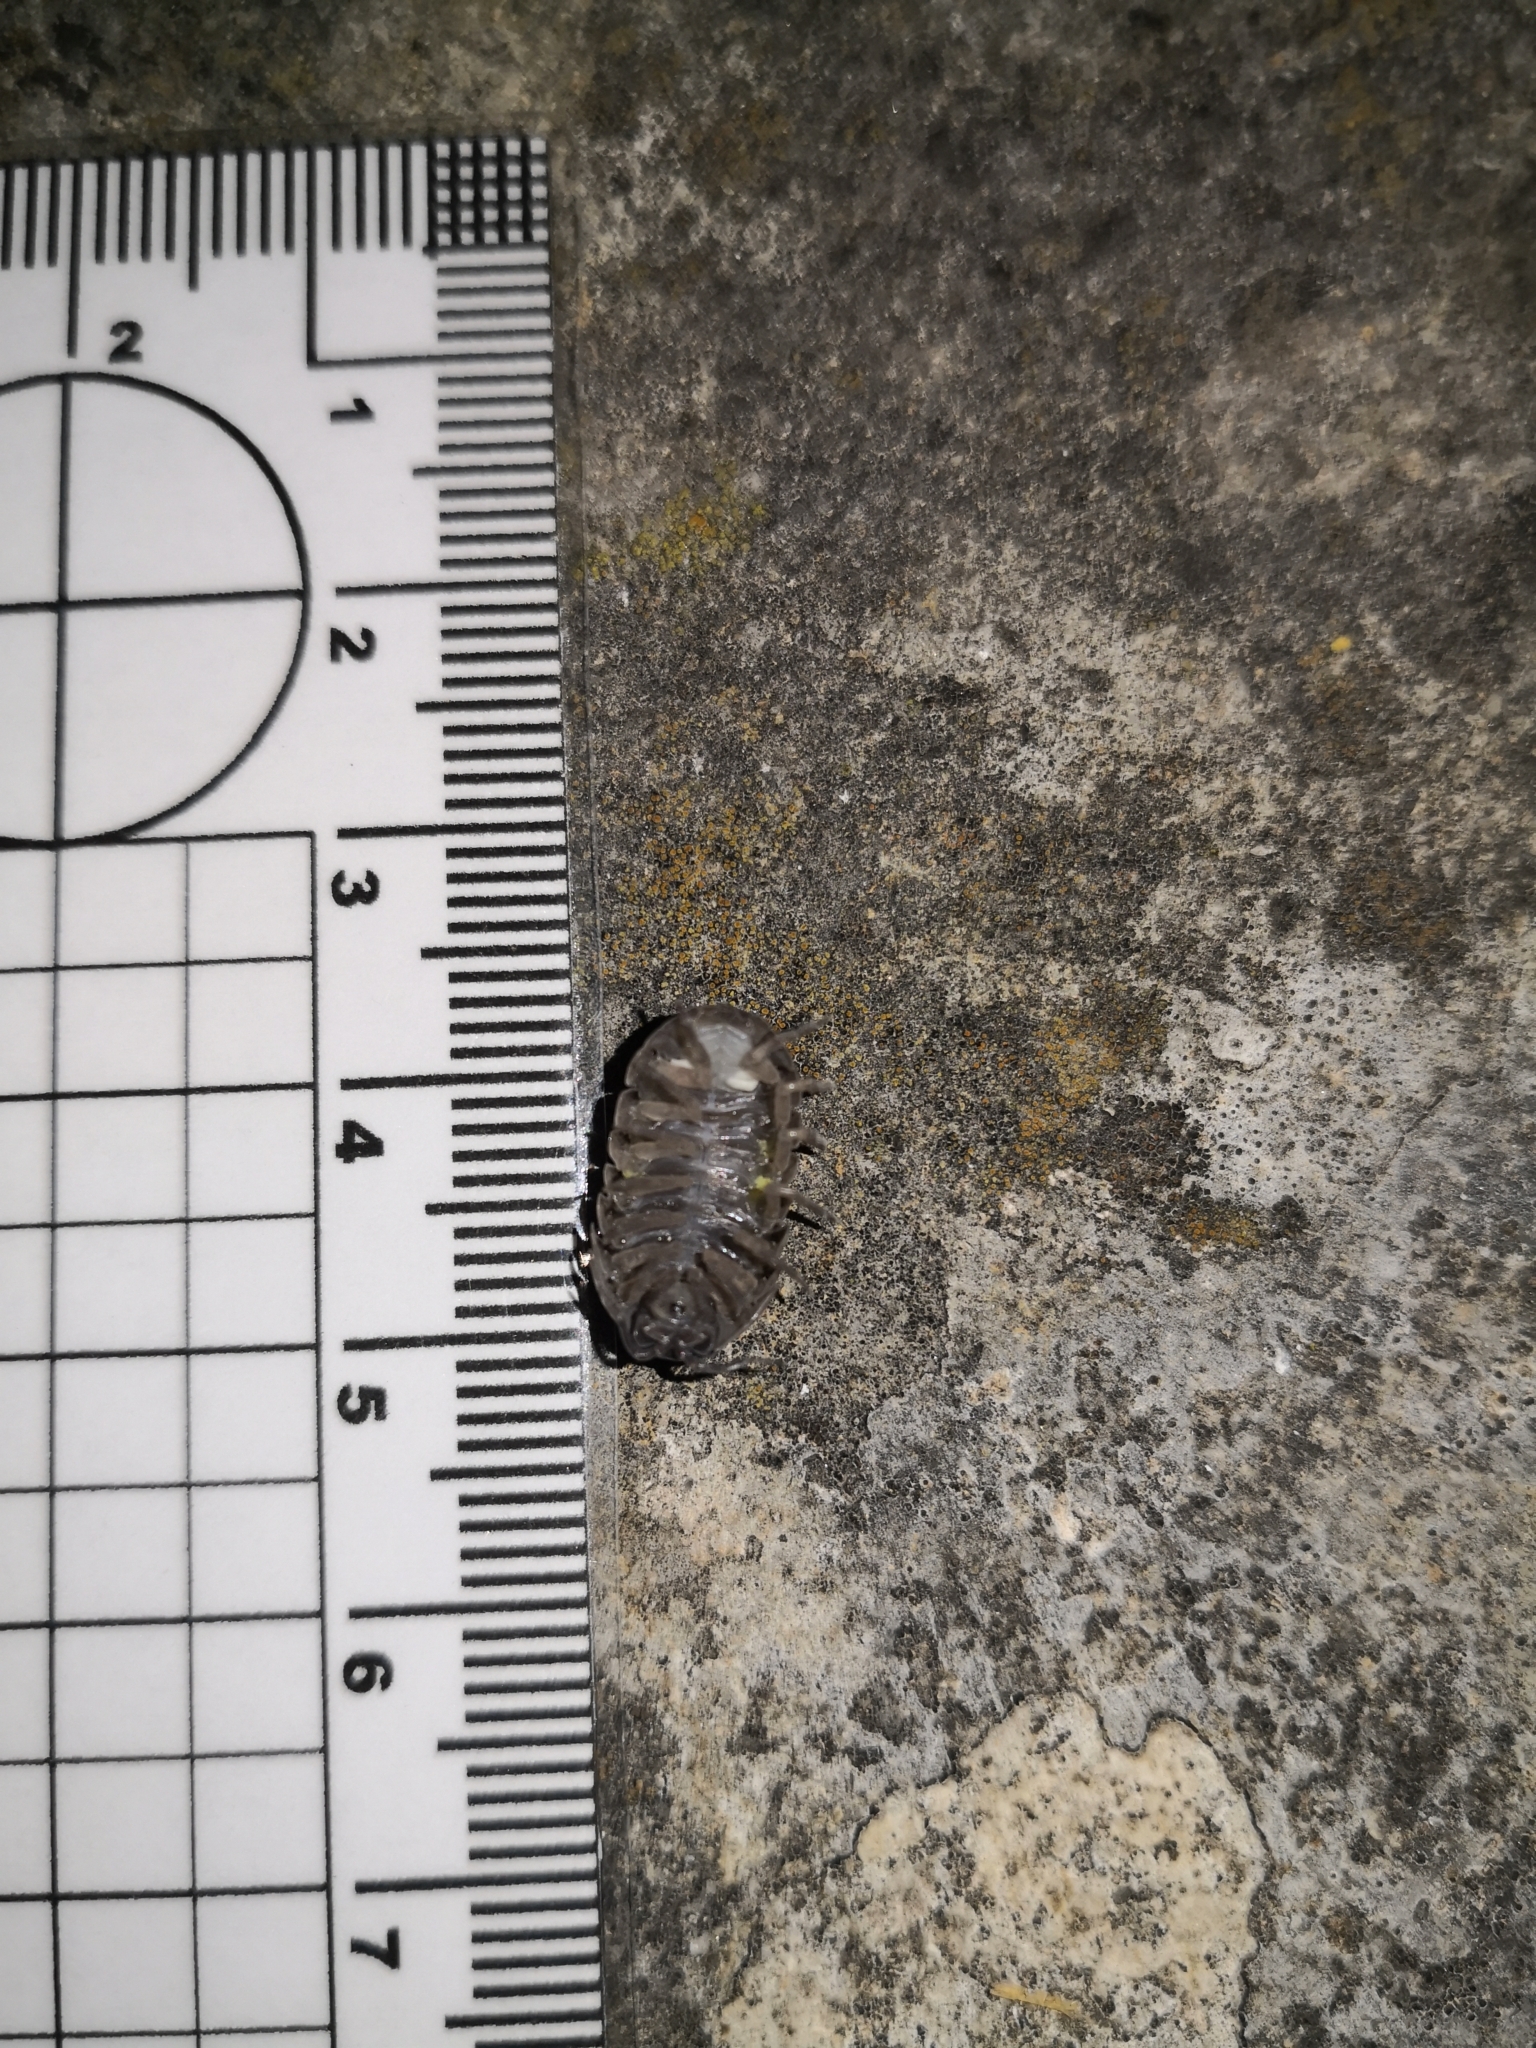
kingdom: Animalia
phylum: Arthropoda
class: Malacostraca
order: Isopoda
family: Armadillidiidae
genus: Armadillidium
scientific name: Armadillidium vulgare
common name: Common pill woodlouse
